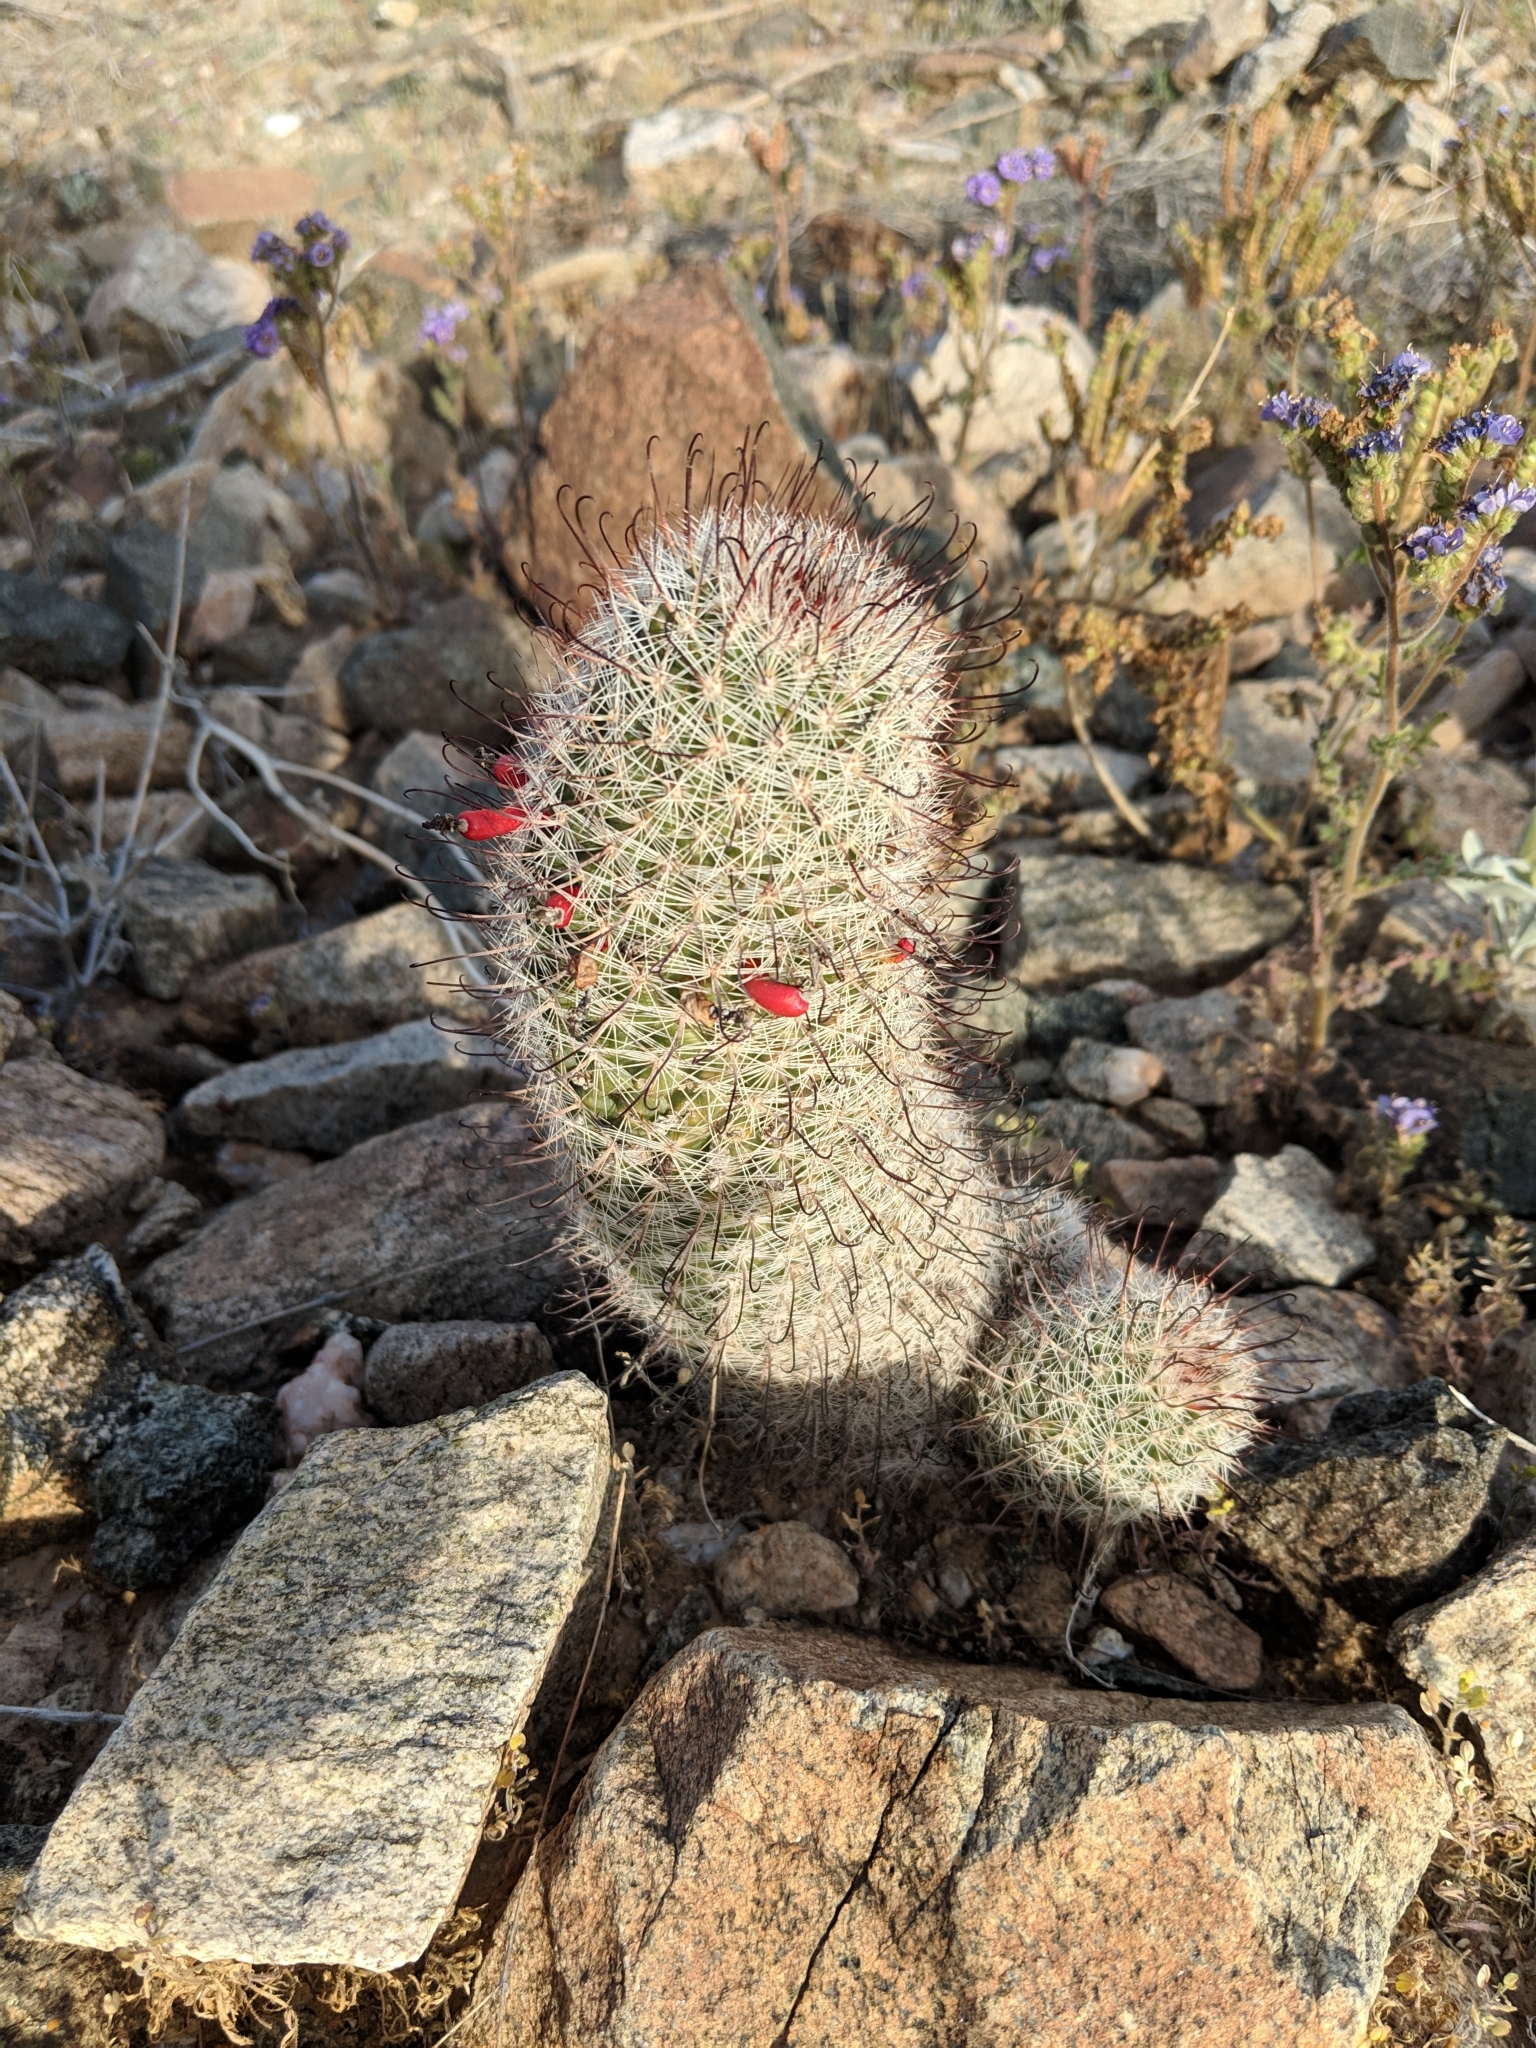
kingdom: Plantae
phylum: Tracheophyta
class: Magnoliopsida
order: Caryophyllales
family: Cactaceae
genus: Cochemiea
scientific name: Cochemiea grahamii
